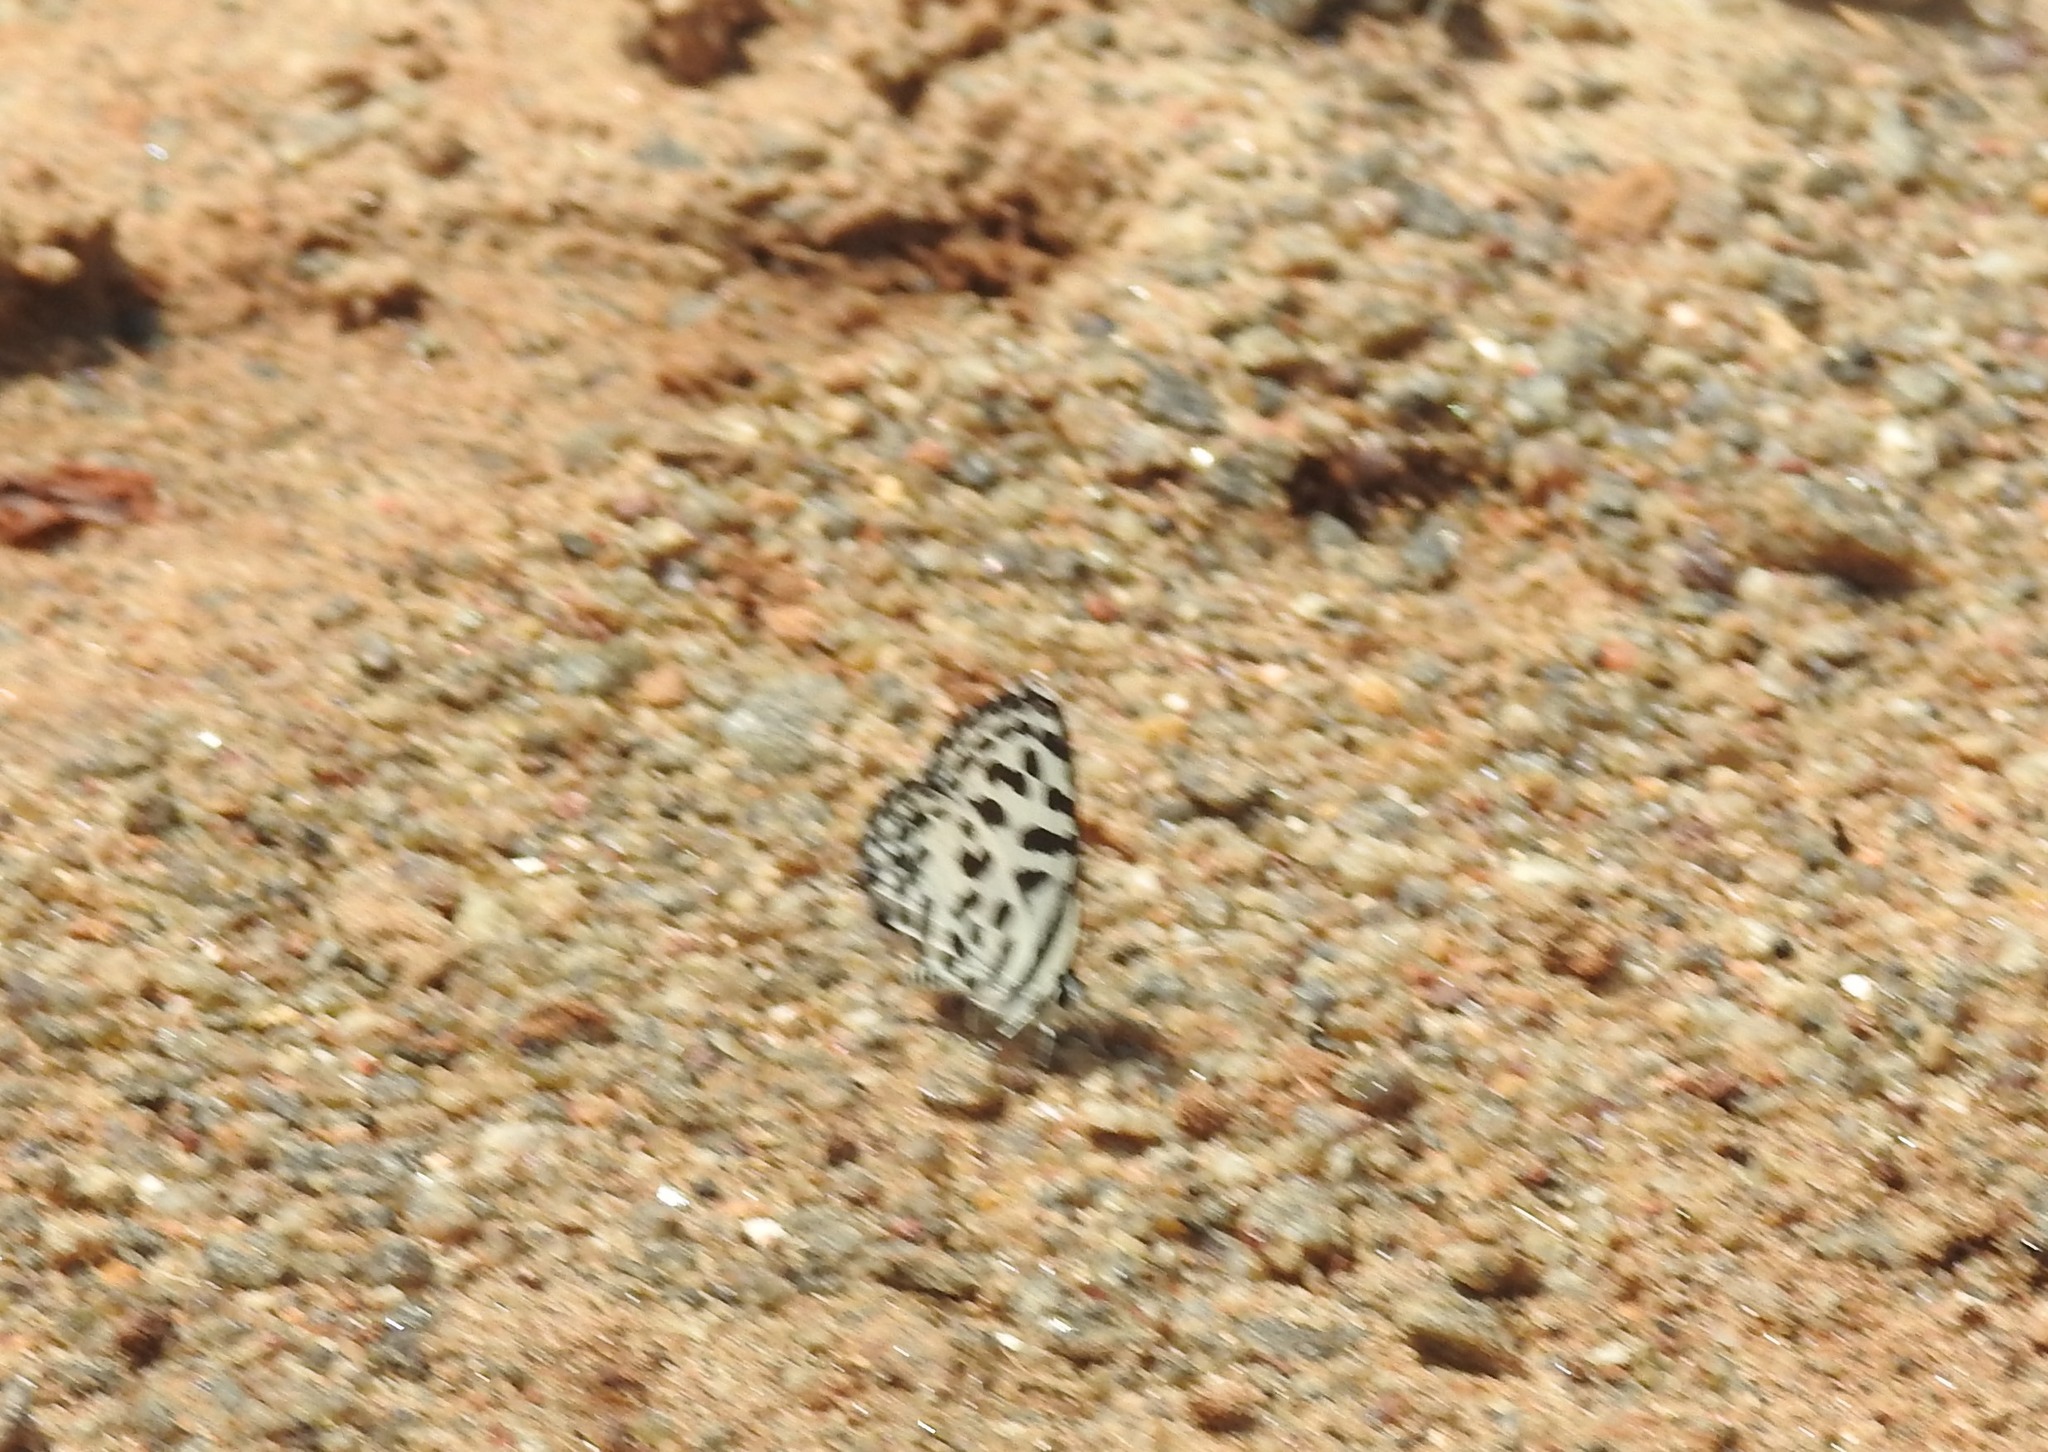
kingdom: Animalia
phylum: Arthropoda
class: Insecta
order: Lepidoptera
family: Lycaenidae
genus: Castalius
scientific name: Castalius rosimon
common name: Common pierrot
